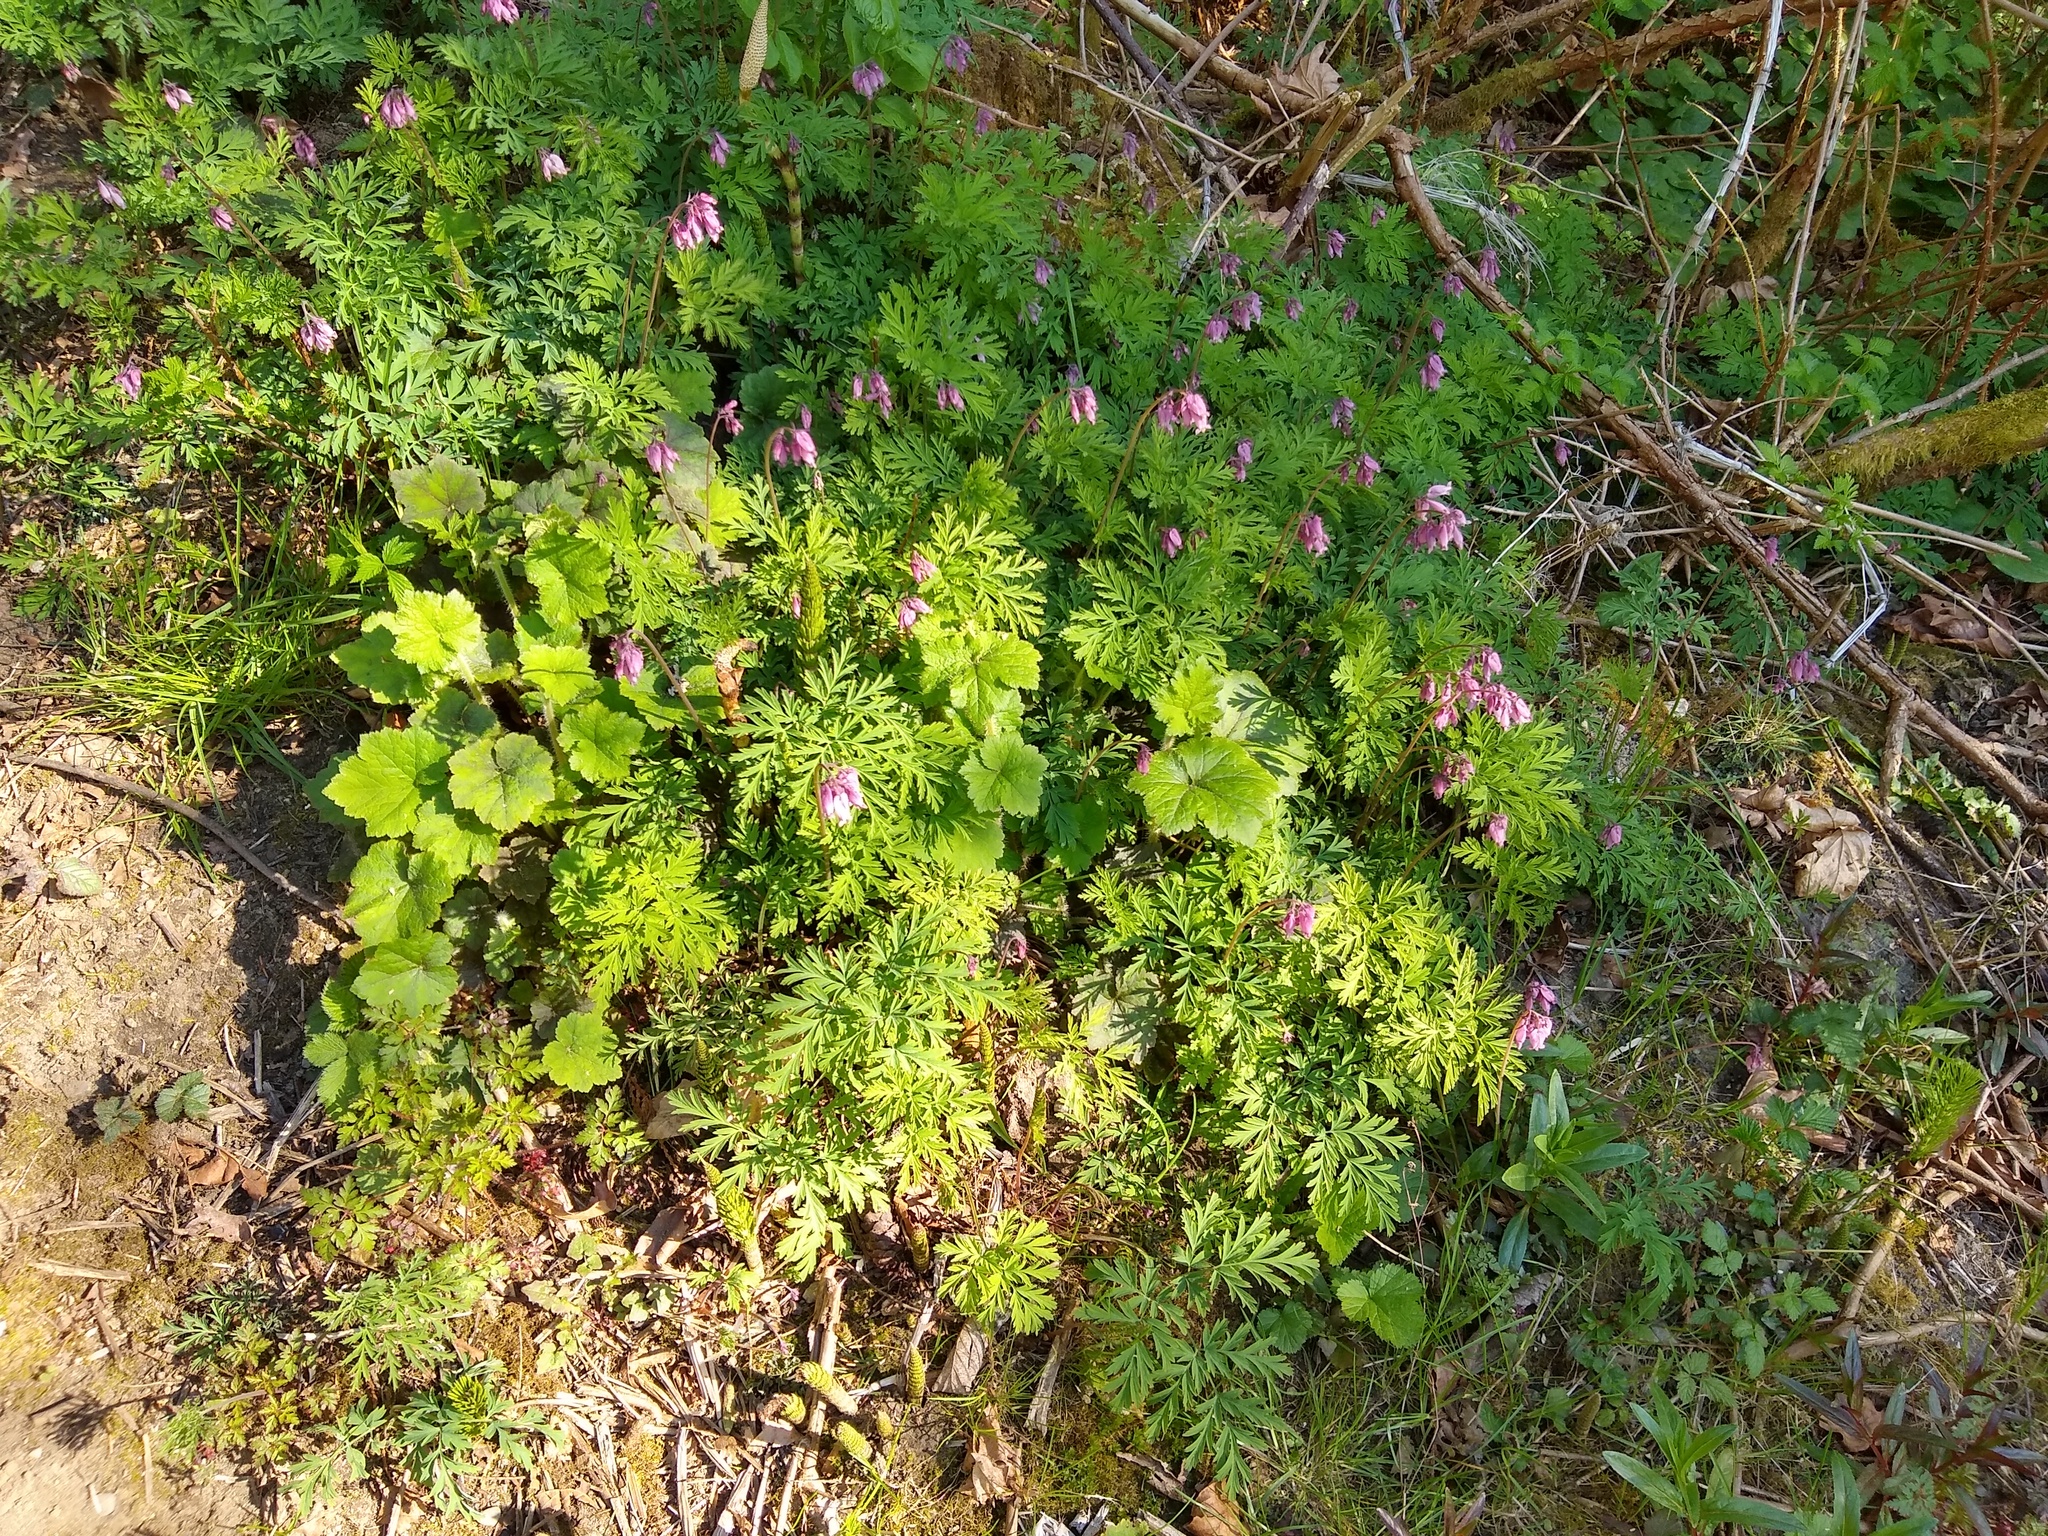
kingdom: Plantae
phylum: Tracheophyta
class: Magnoliopsida
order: Ranunculales
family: Papaveraceae
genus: Dicentra
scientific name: Dicentra formosa
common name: Bleeding-heart
